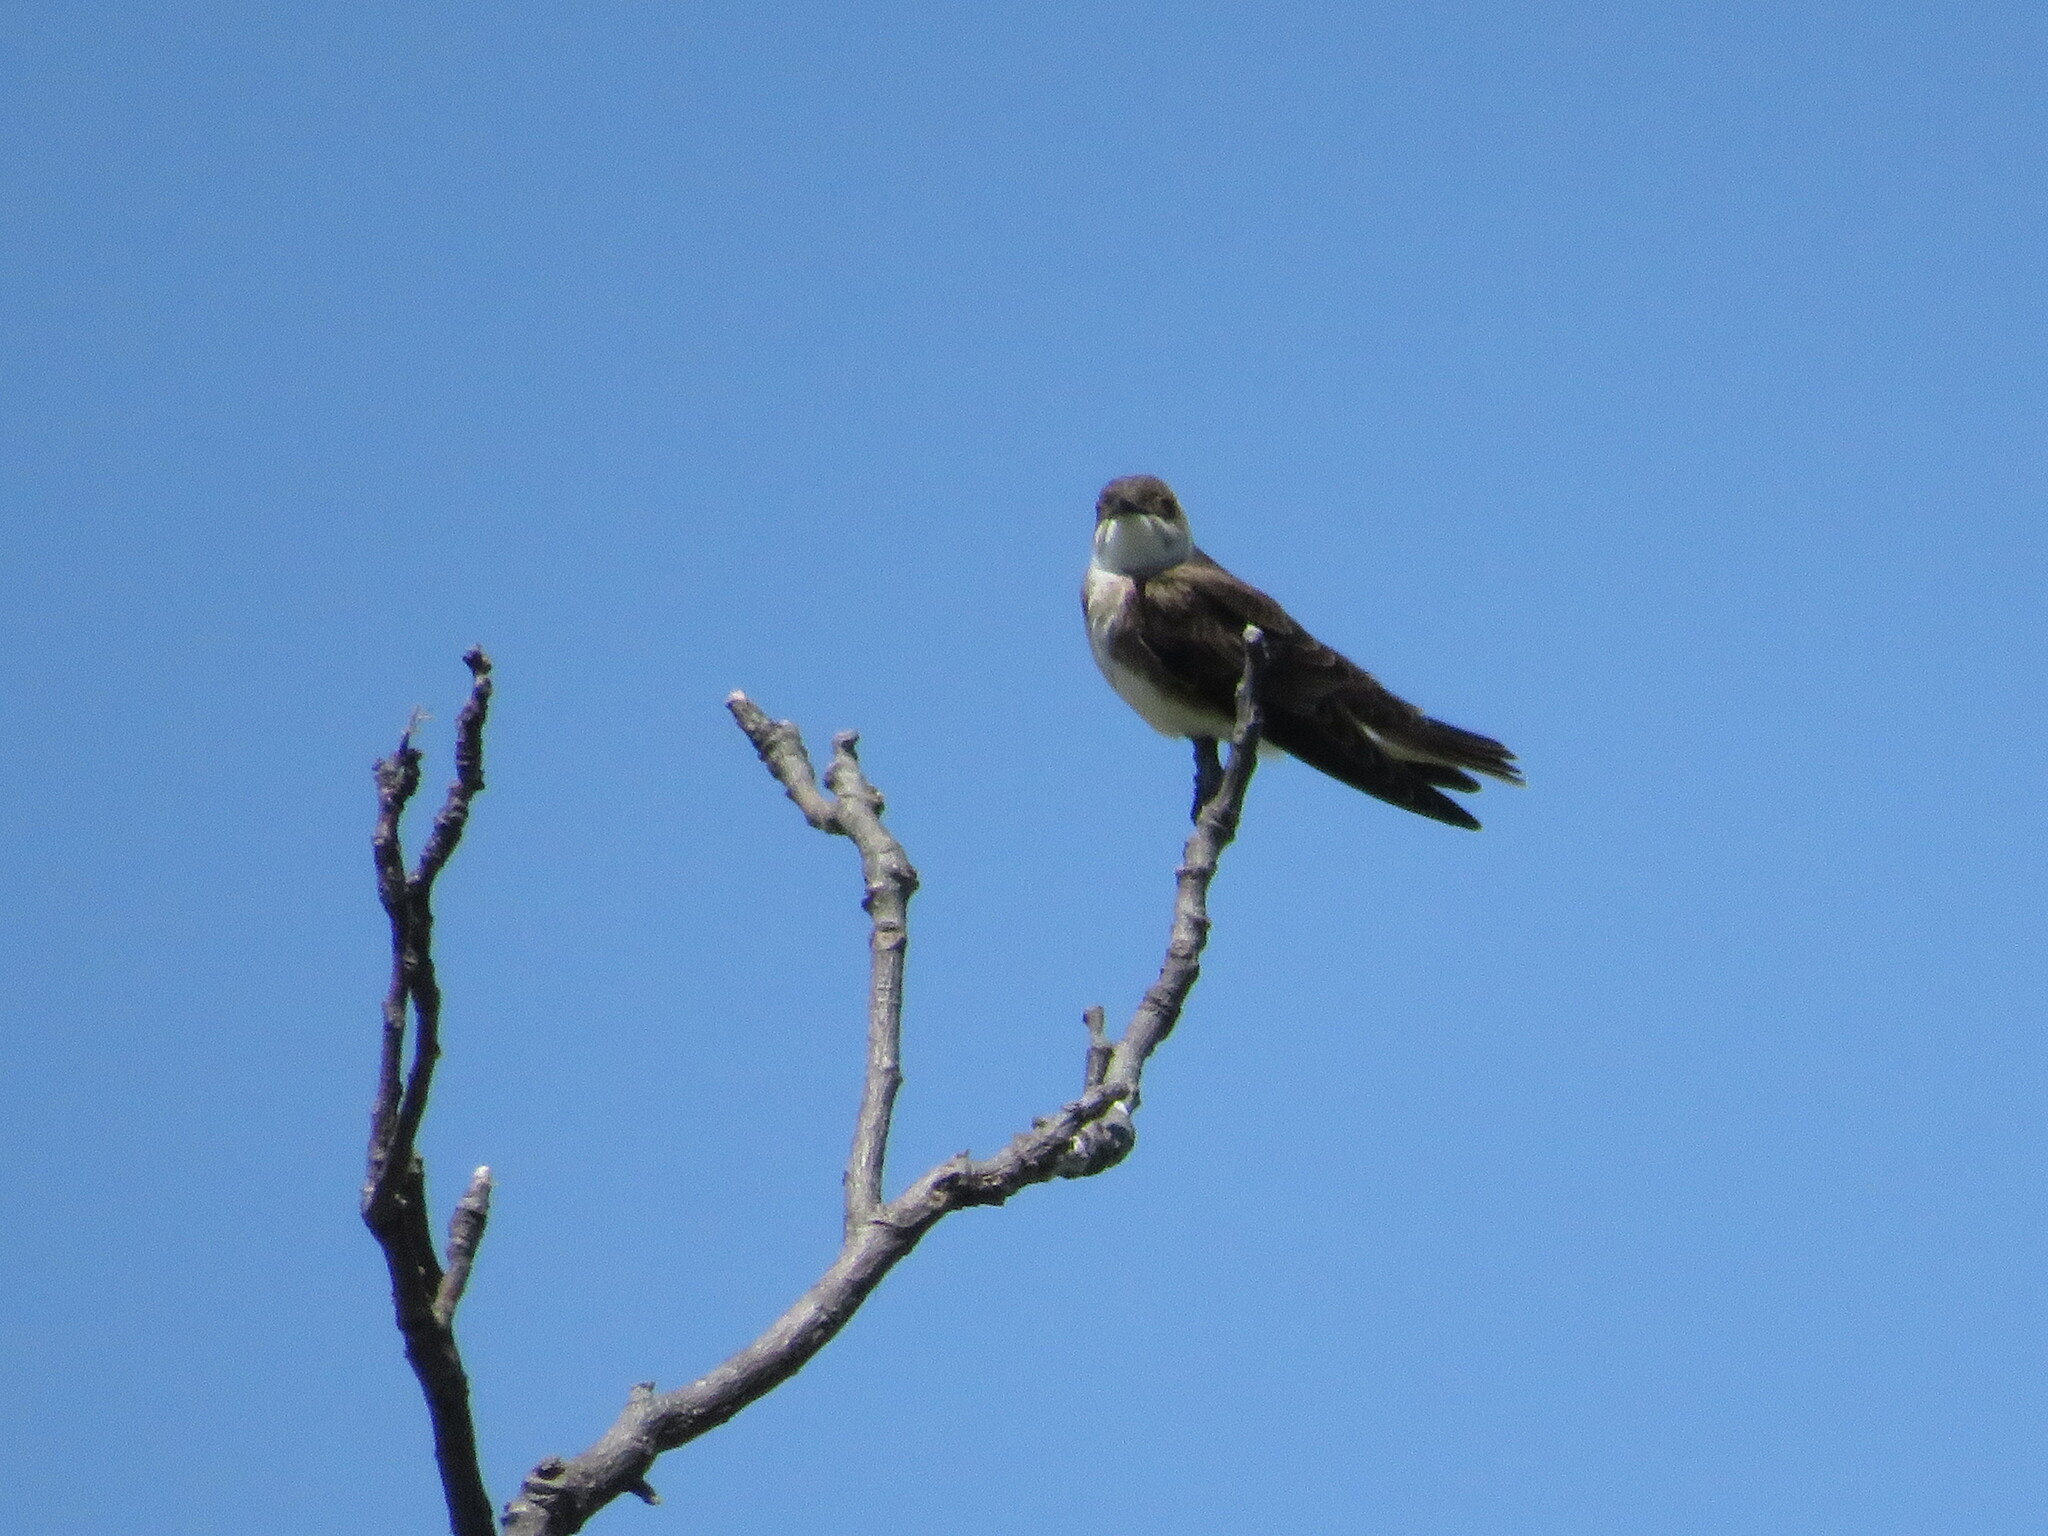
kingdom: Animalia
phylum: Chordata
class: Aves
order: Passeriformes
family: Hirundinidae
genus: Progne
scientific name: Progne tapera
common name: Brown-chested martin
